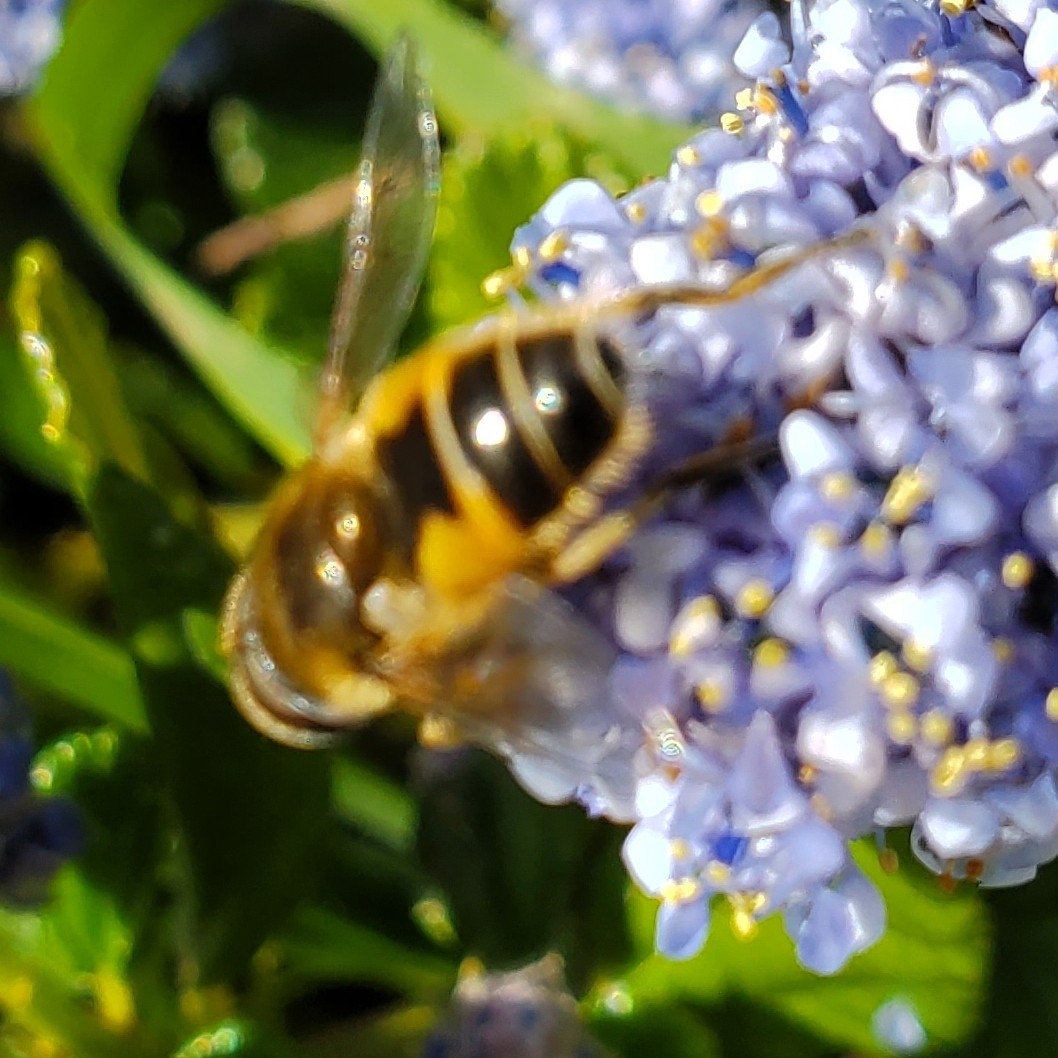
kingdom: Animalia
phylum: Arthropoda
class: Insecta
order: Diptera
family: Syrphidae
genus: Eristalis
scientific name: Eristalis arbustorum
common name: Hover fly
